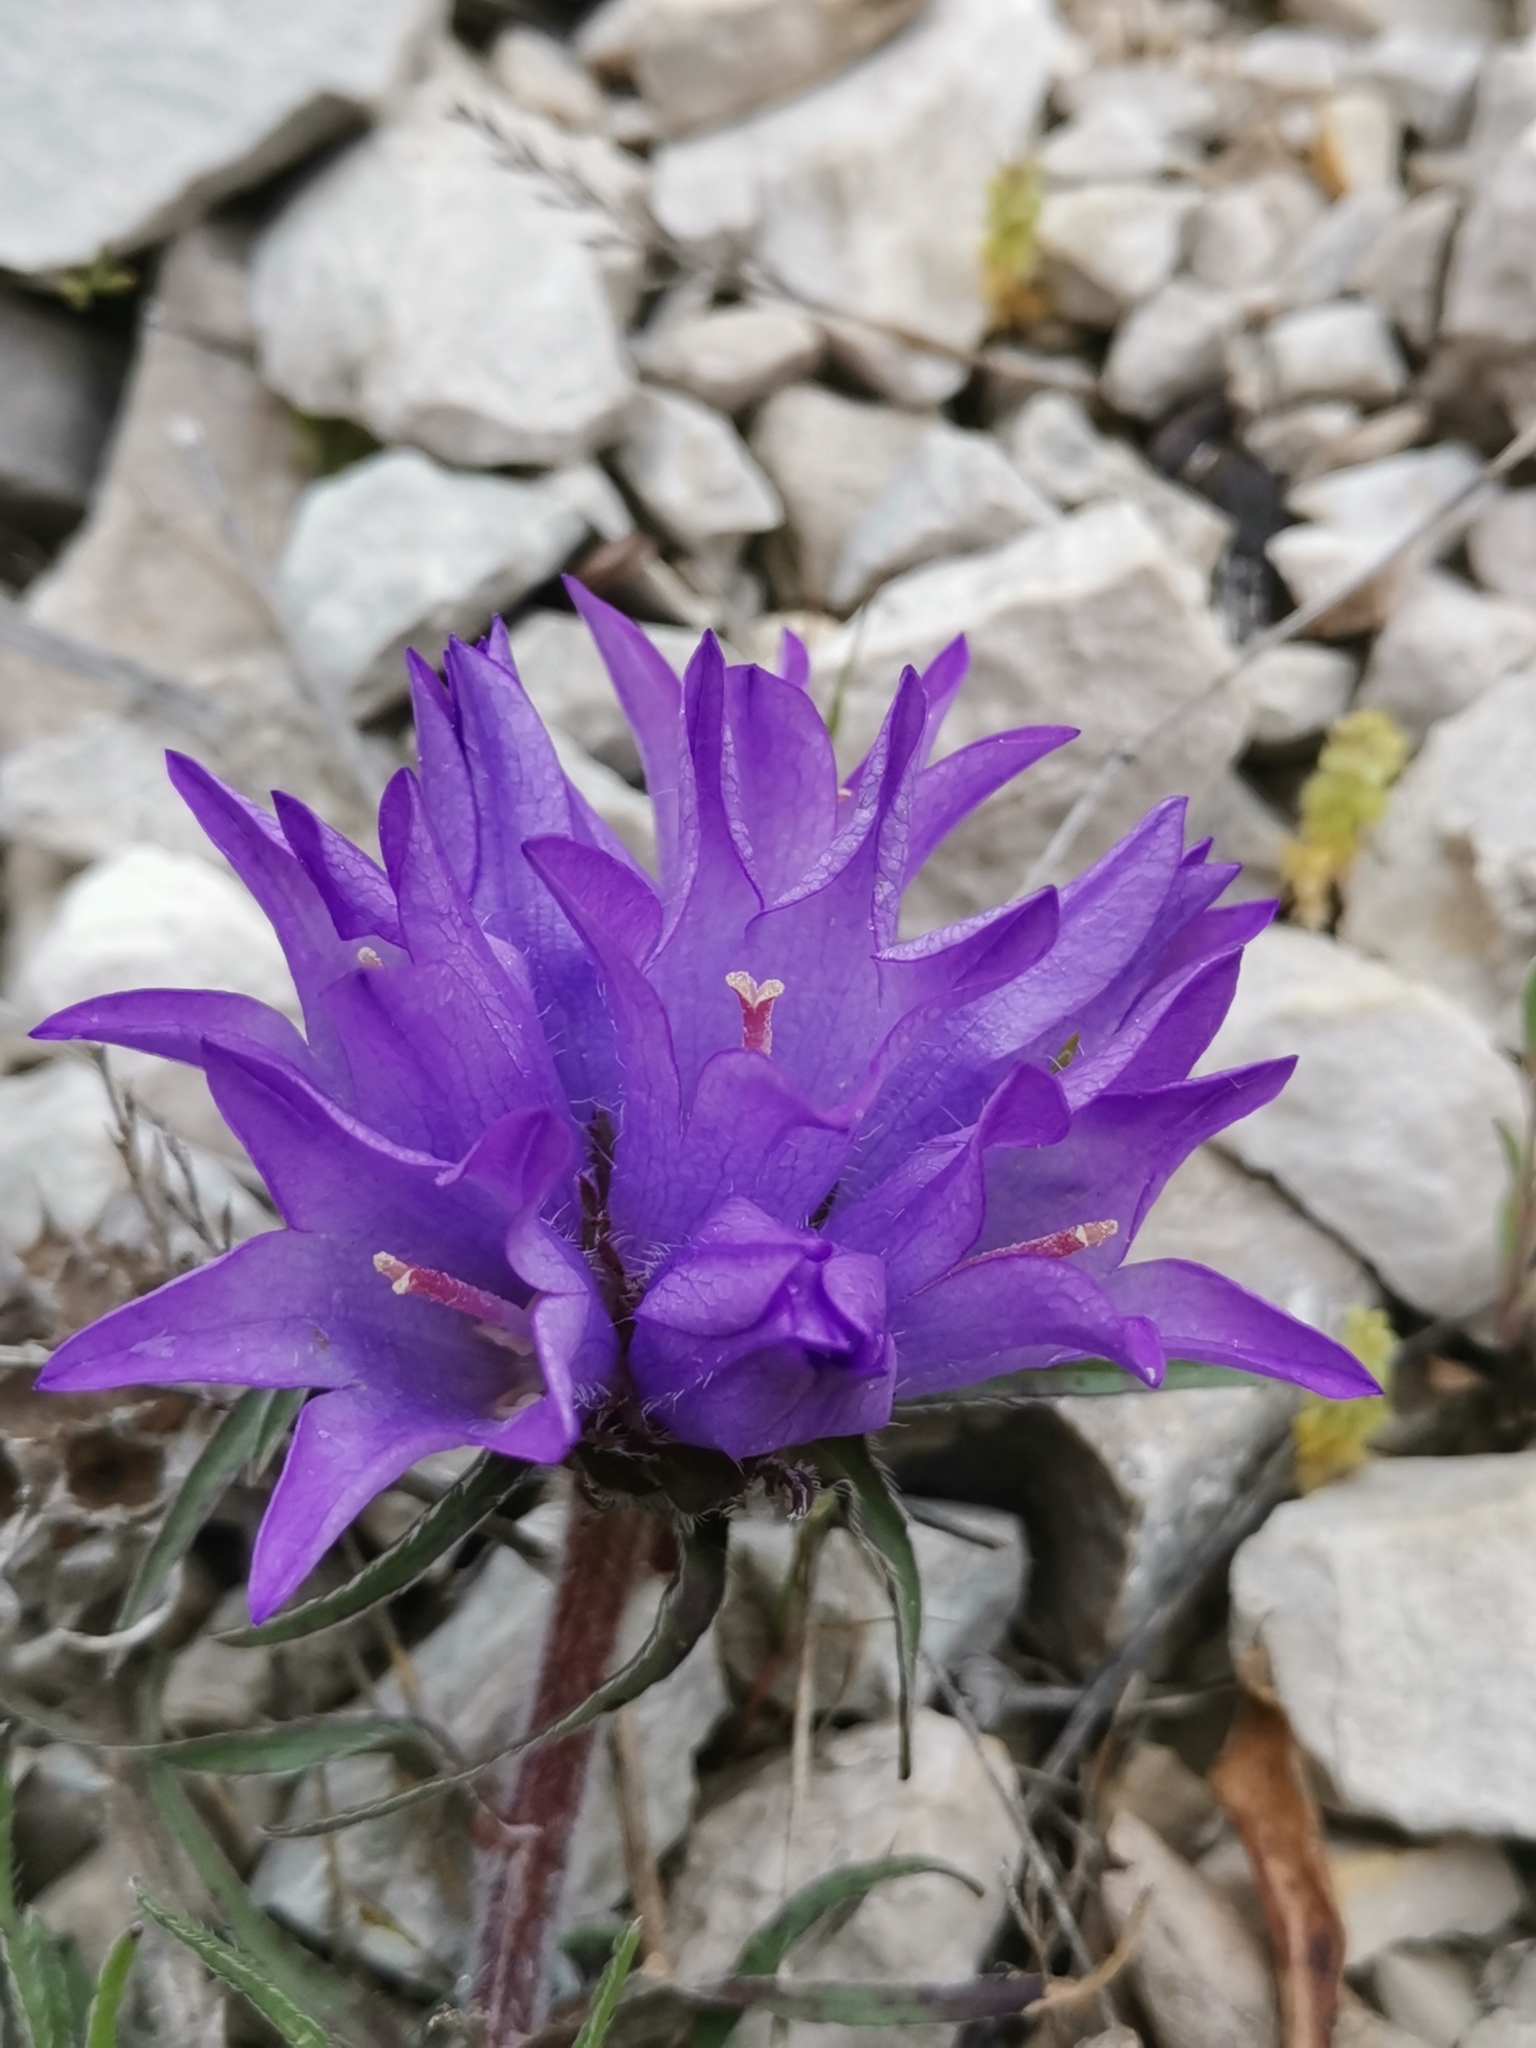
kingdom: Plantae
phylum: Tracheophyta
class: Magnoliopsida
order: Asterales
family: Campanulaceae
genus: Edraianthus
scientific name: Edraianthus tenuifolius
